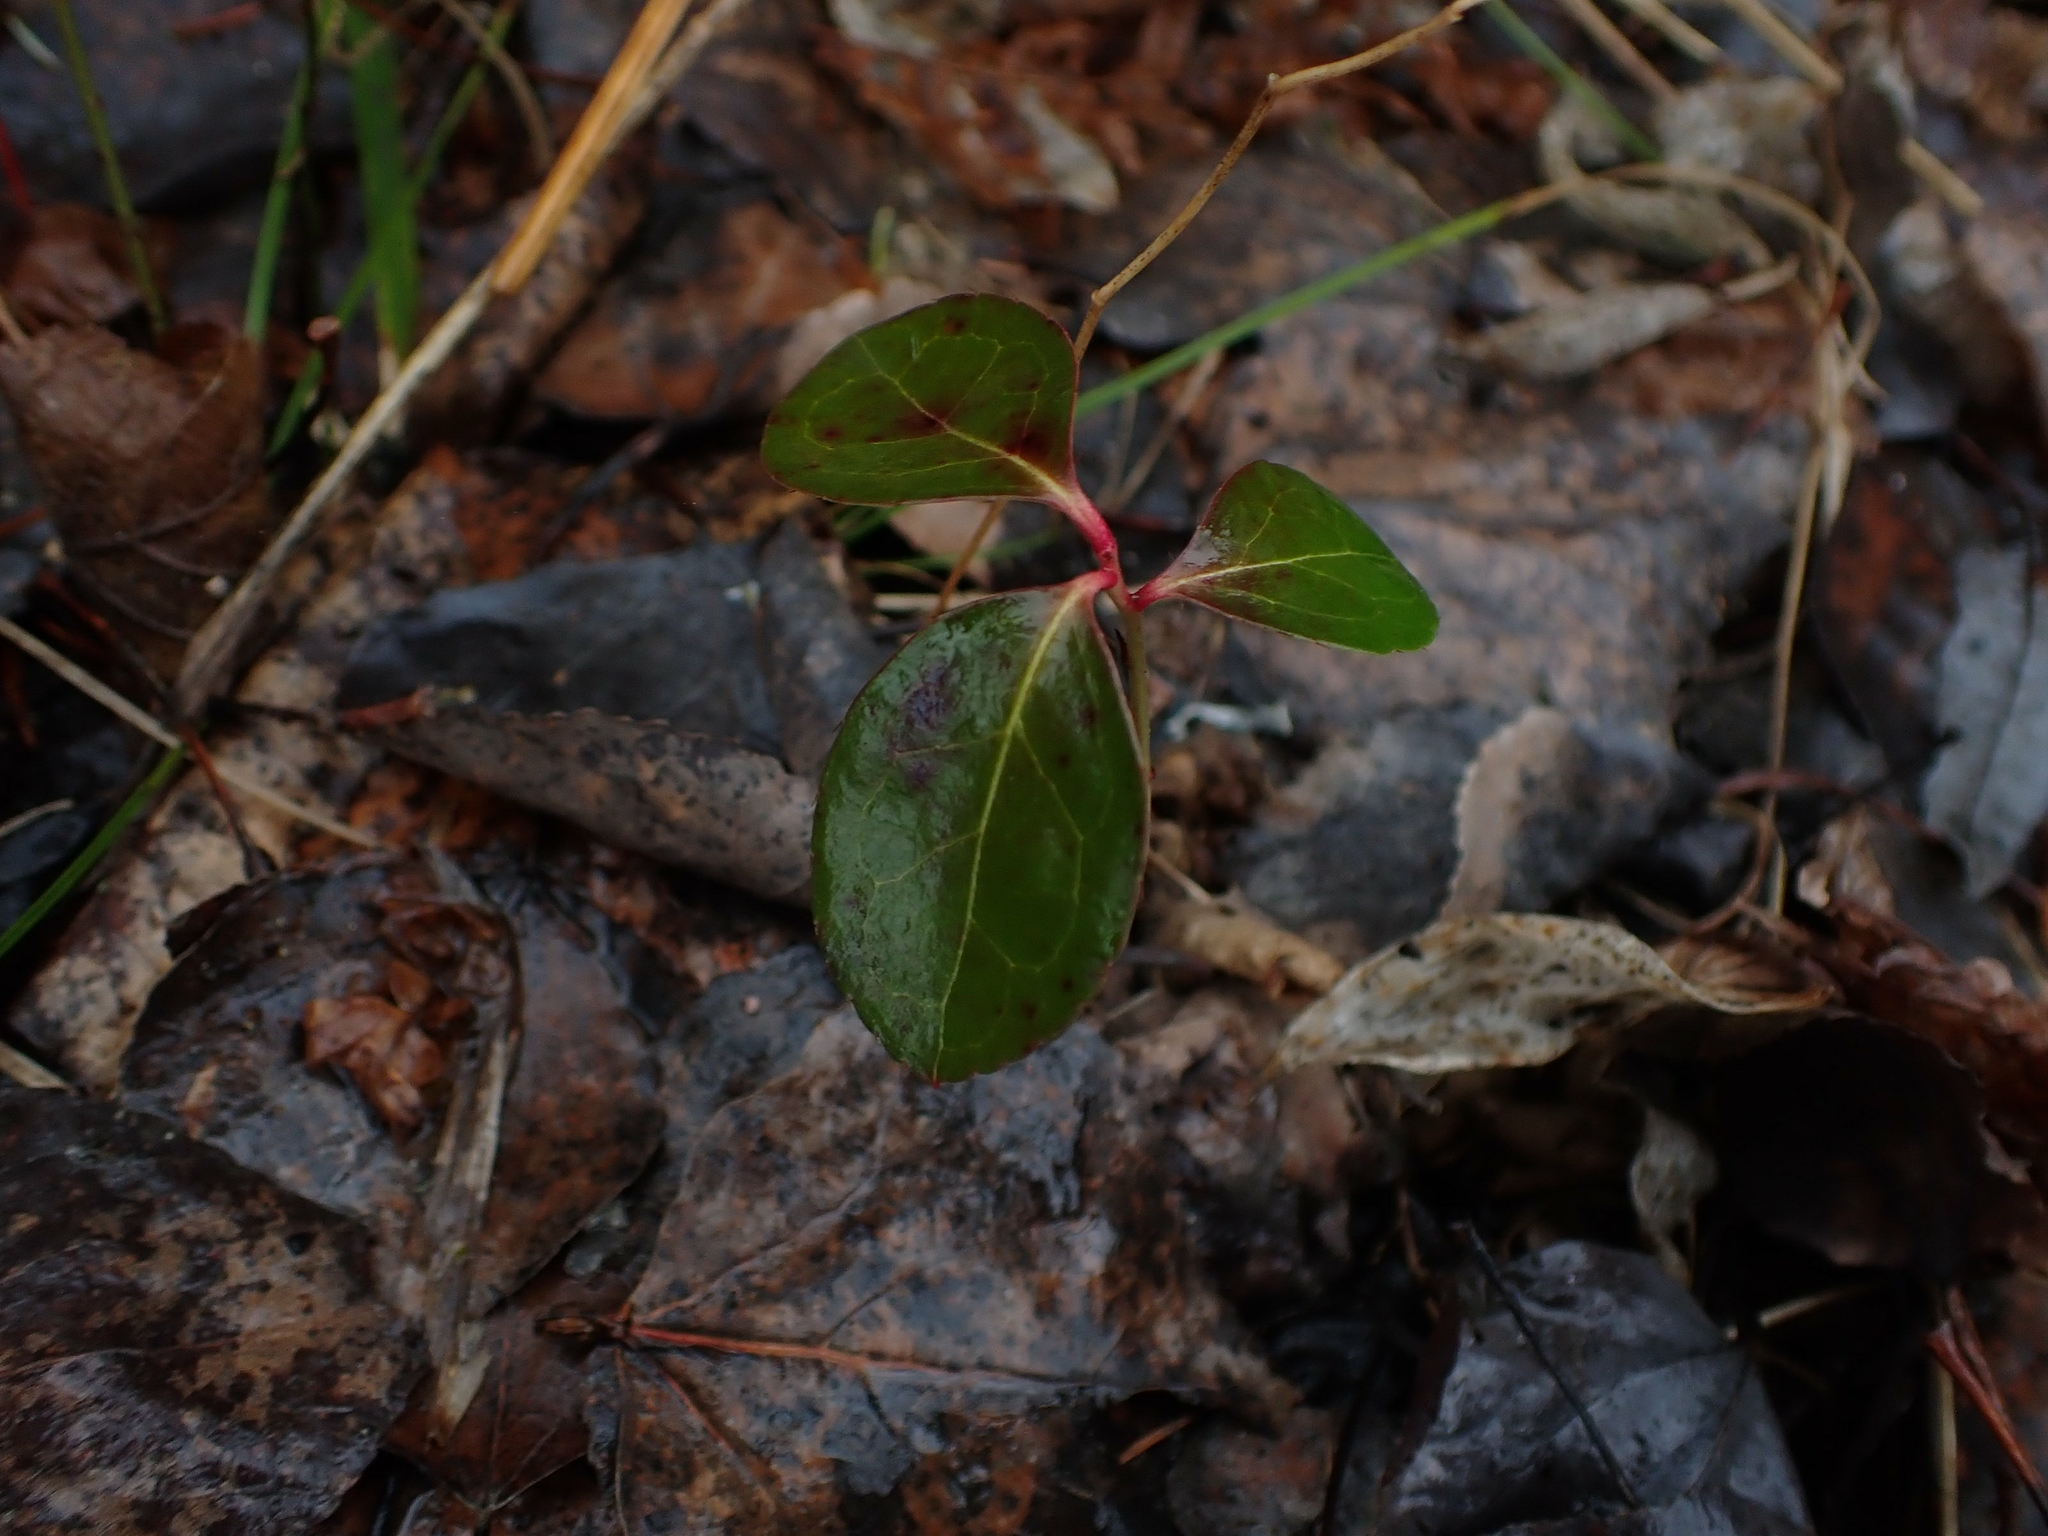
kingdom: Plantae
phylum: Tracheophyta
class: Magnoliopsida
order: Ericales
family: Ericaceae
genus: Gaultheria
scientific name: Gaultheria procumbens
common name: Checkerberry
